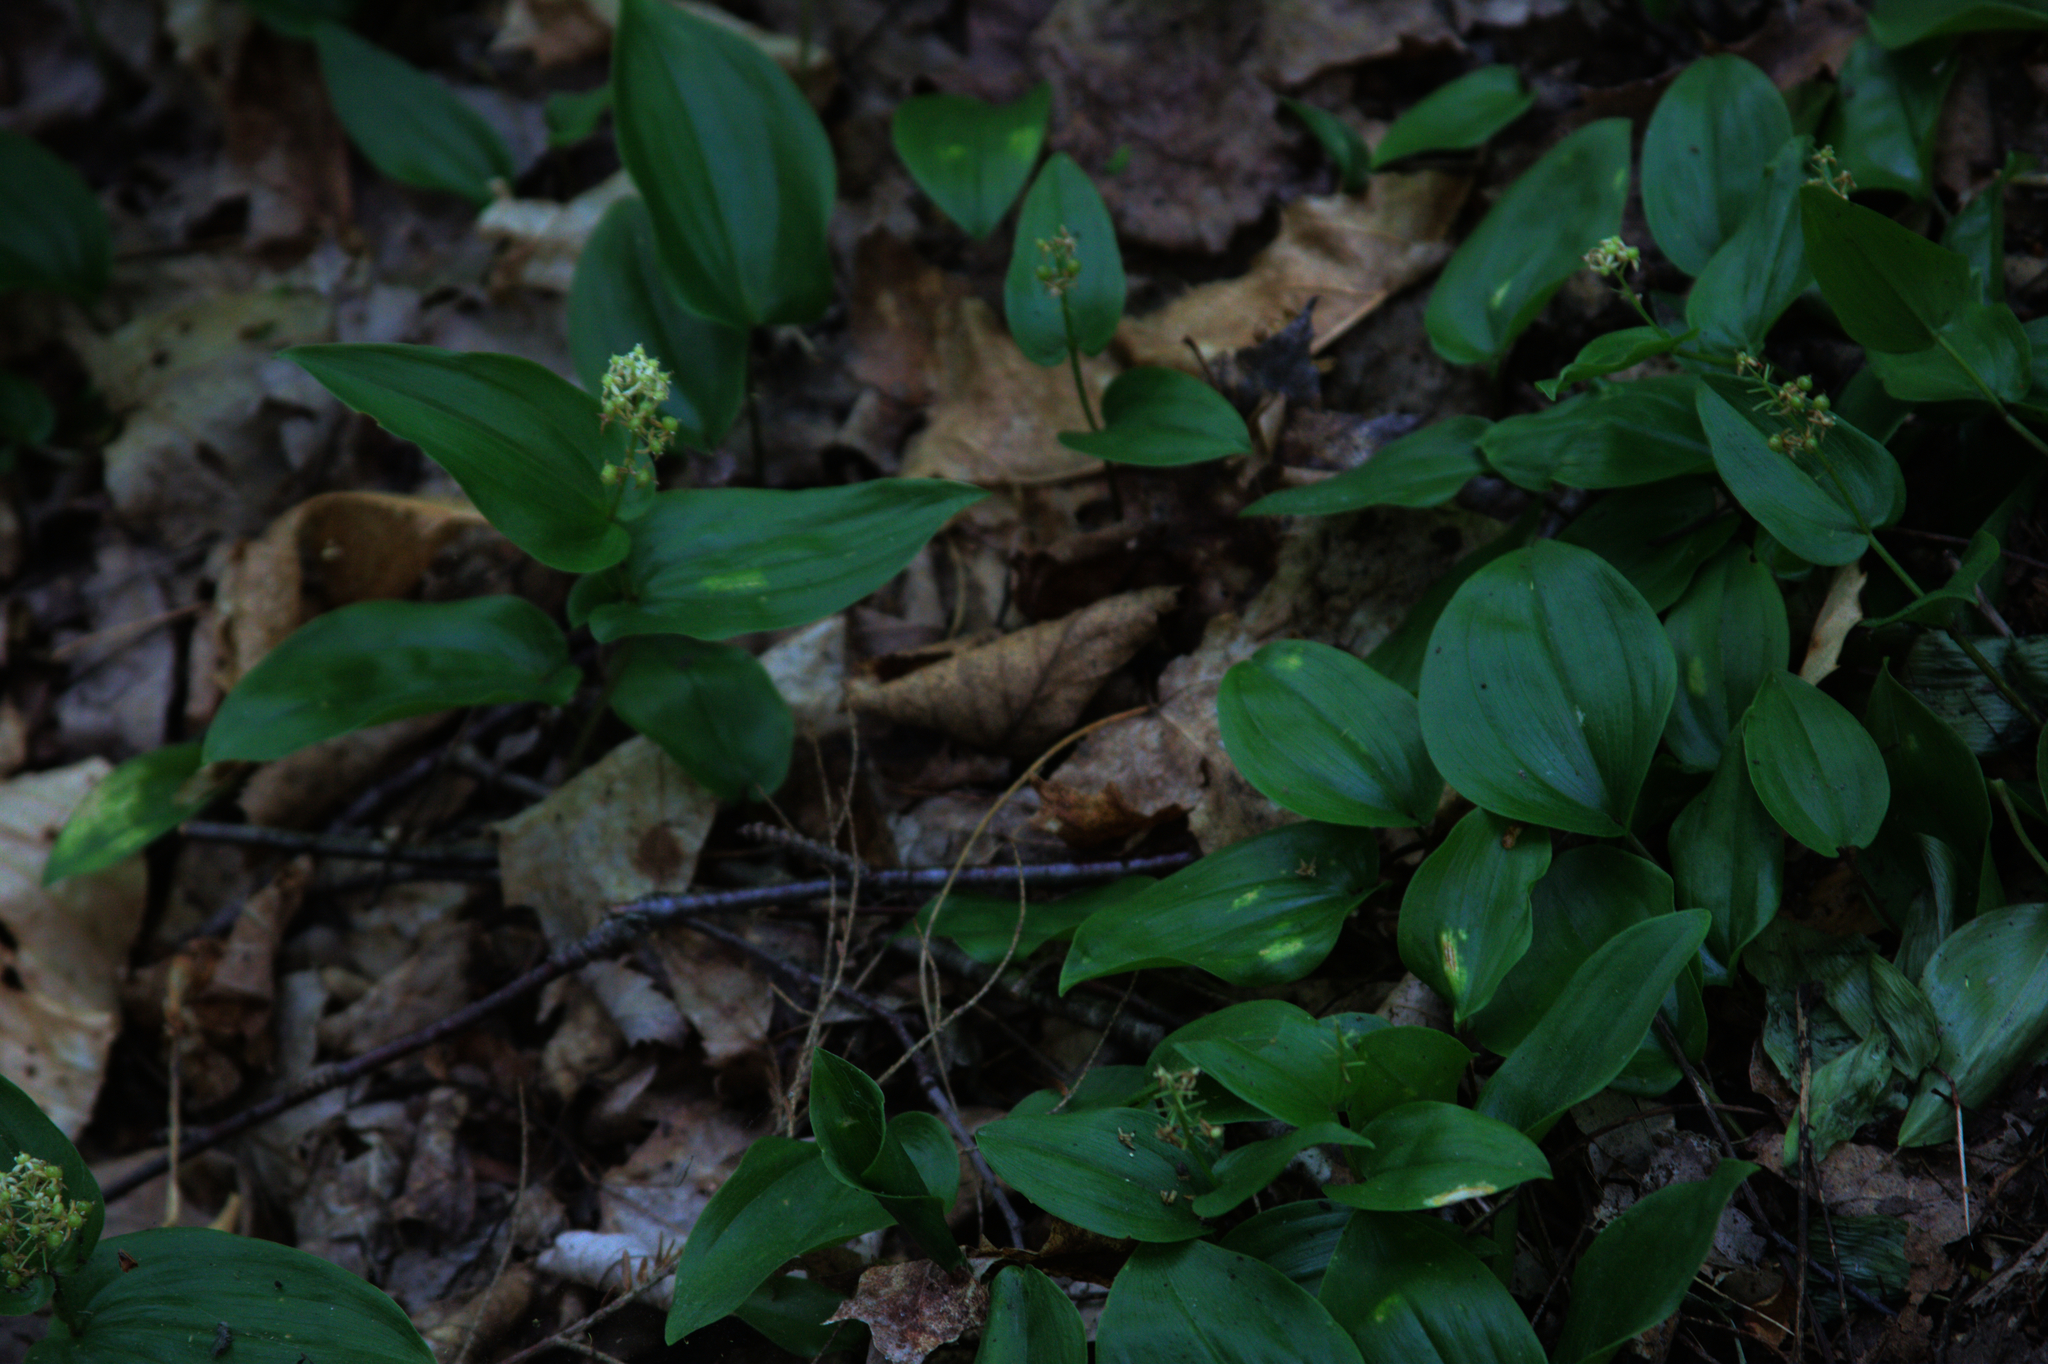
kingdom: Plantae
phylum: Tracheophyta
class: Liliopsida
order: Asparagales
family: Asparagaceae
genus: Maianthemum
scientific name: Maianthemum canadense
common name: False lily-of-the-valley
